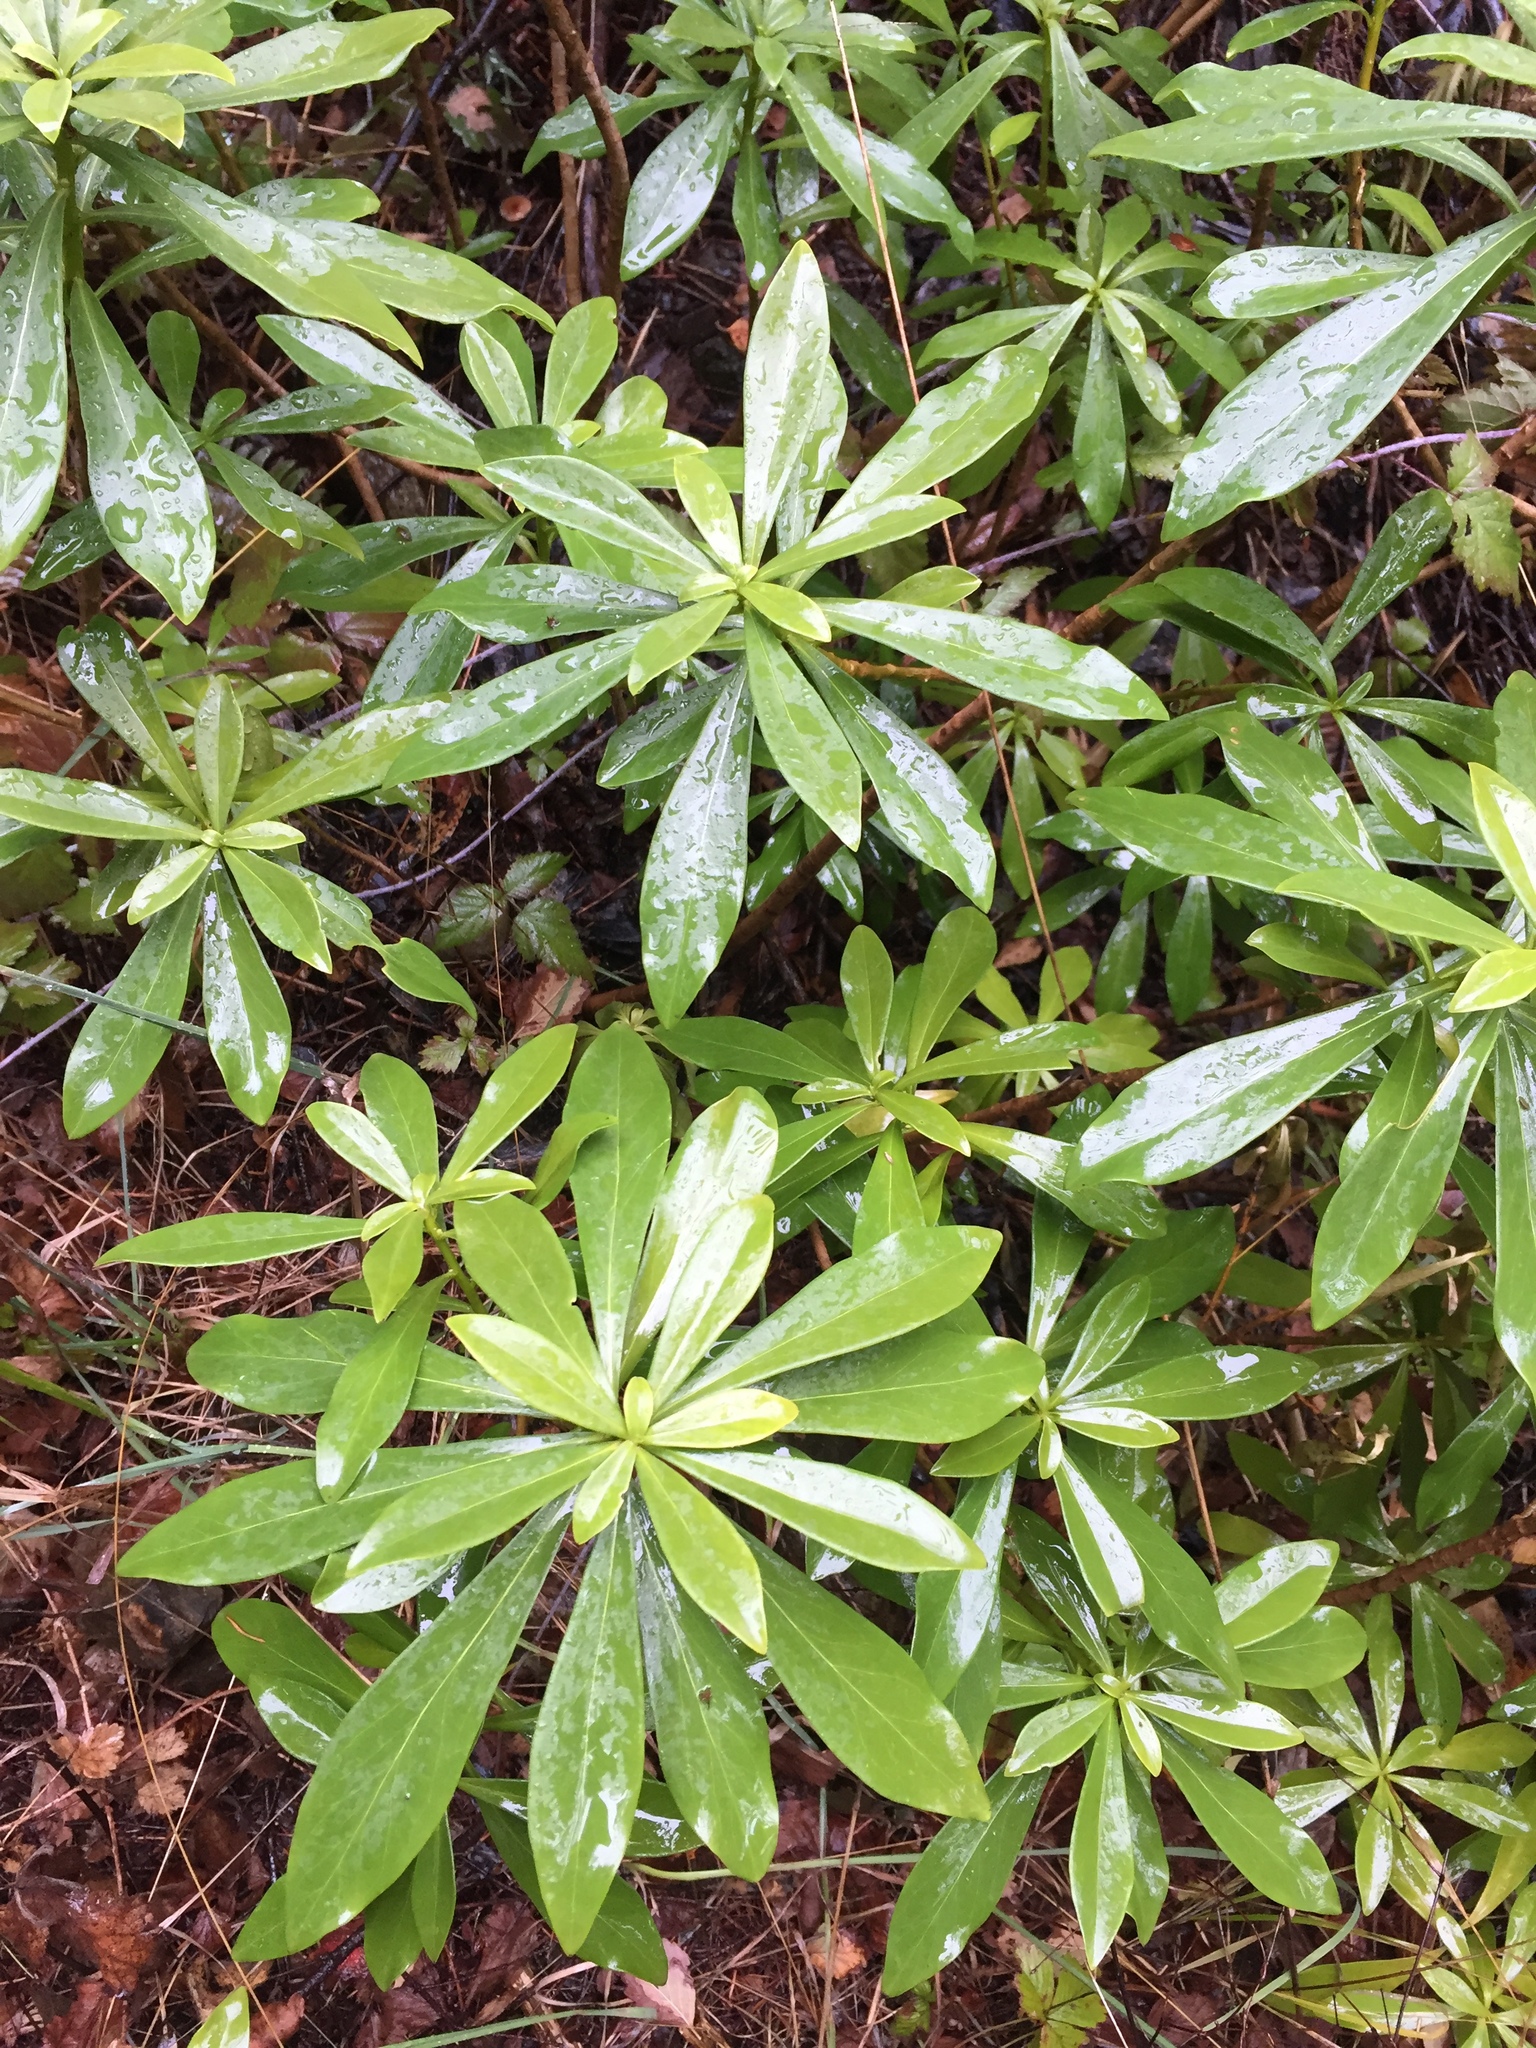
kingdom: Plantae
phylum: Tracheophyta
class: Magnoliopsida
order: Malvales
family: Thymelaeaceae
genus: Daphne
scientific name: Daphne laureola
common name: Spurge-laurel
